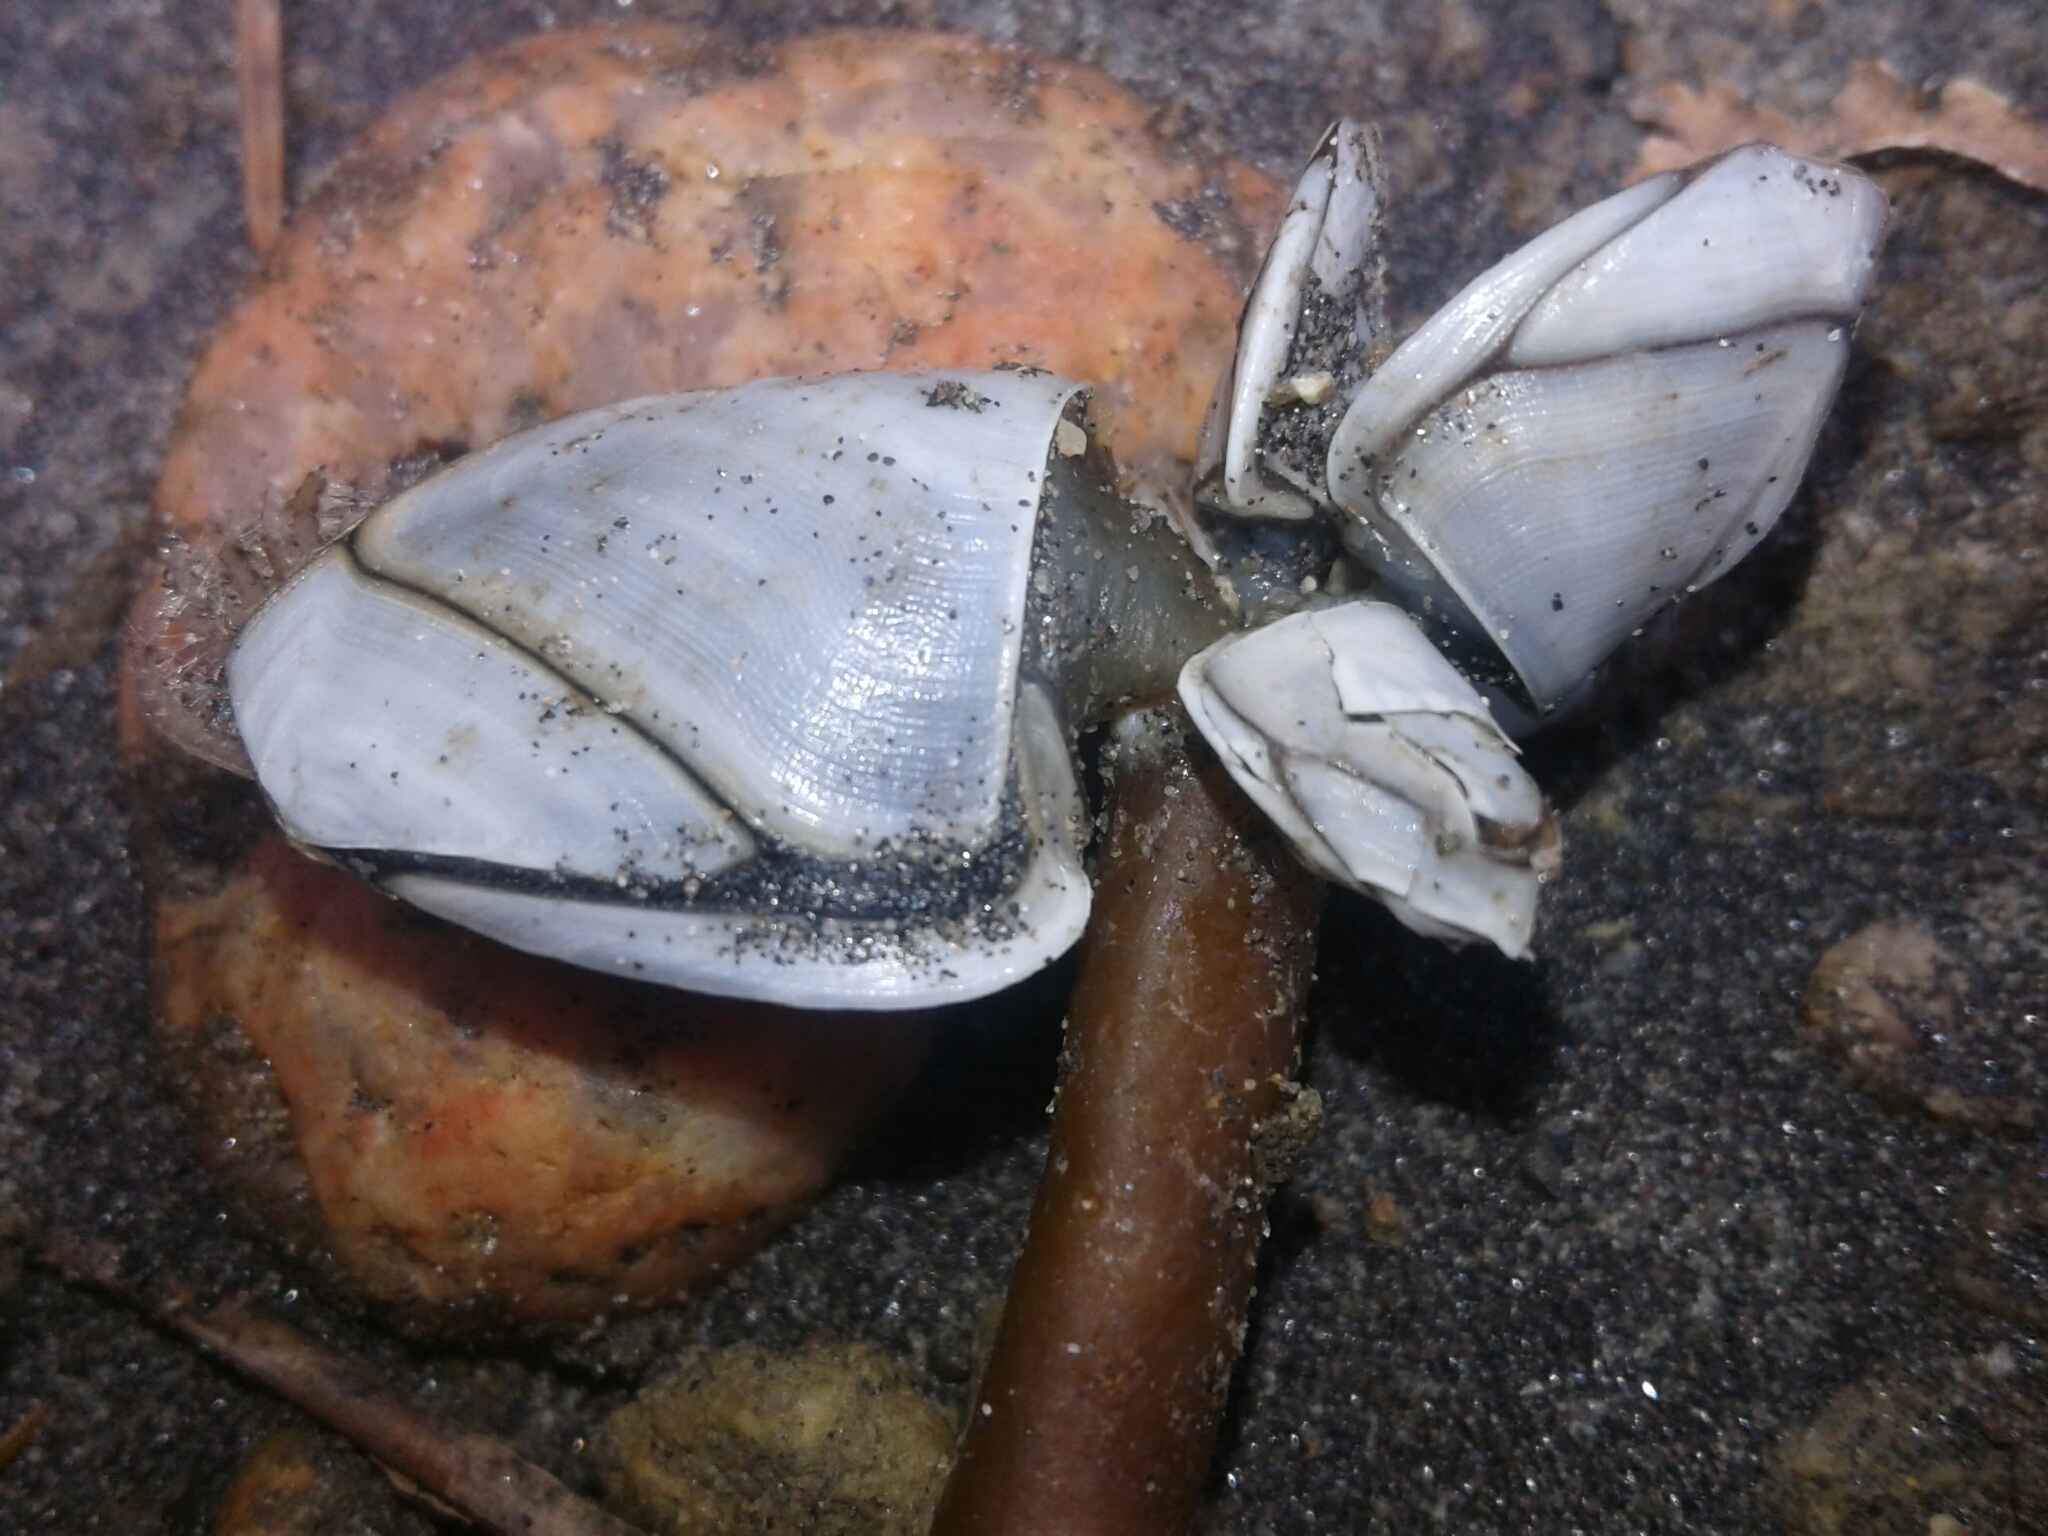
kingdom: Animalia
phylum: Arthropoda
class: Maxillopoda
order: Pedunculata
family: Lepadidae
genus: Lepas
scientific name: Lepas australis
